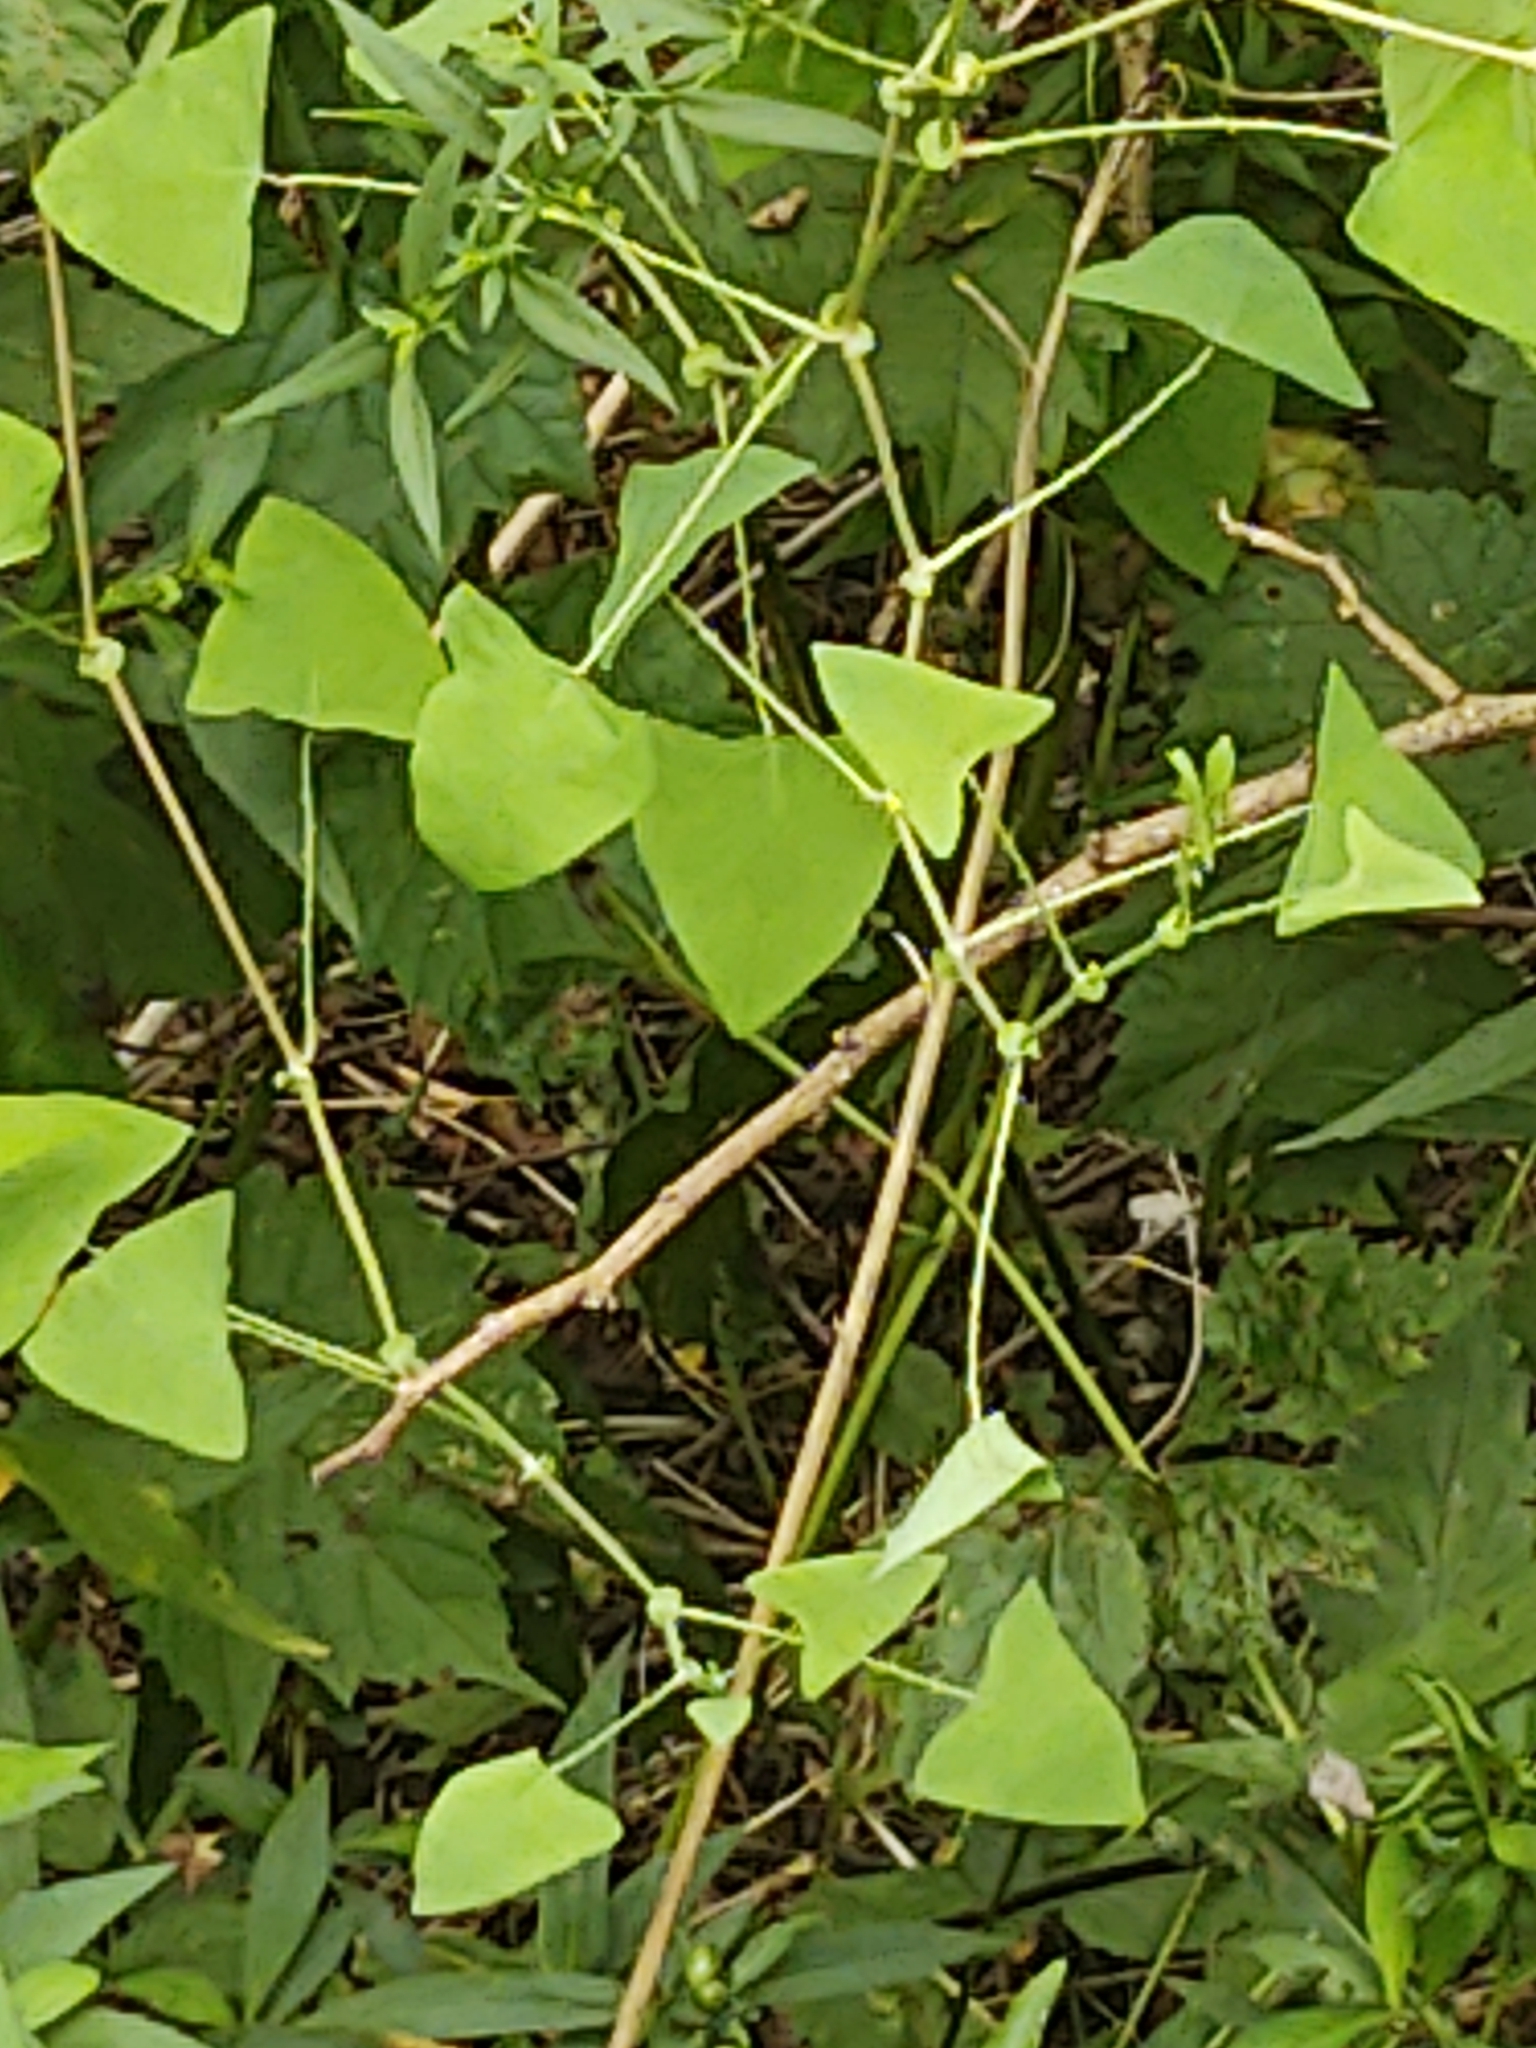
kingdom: Plantae
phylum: Tracheophyta
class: Magnoliopsida
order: Caryophyllales
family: Polygonaceae
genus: Persicaria
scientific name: Persicaria perfoliata
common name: Asiatic tearthumb
